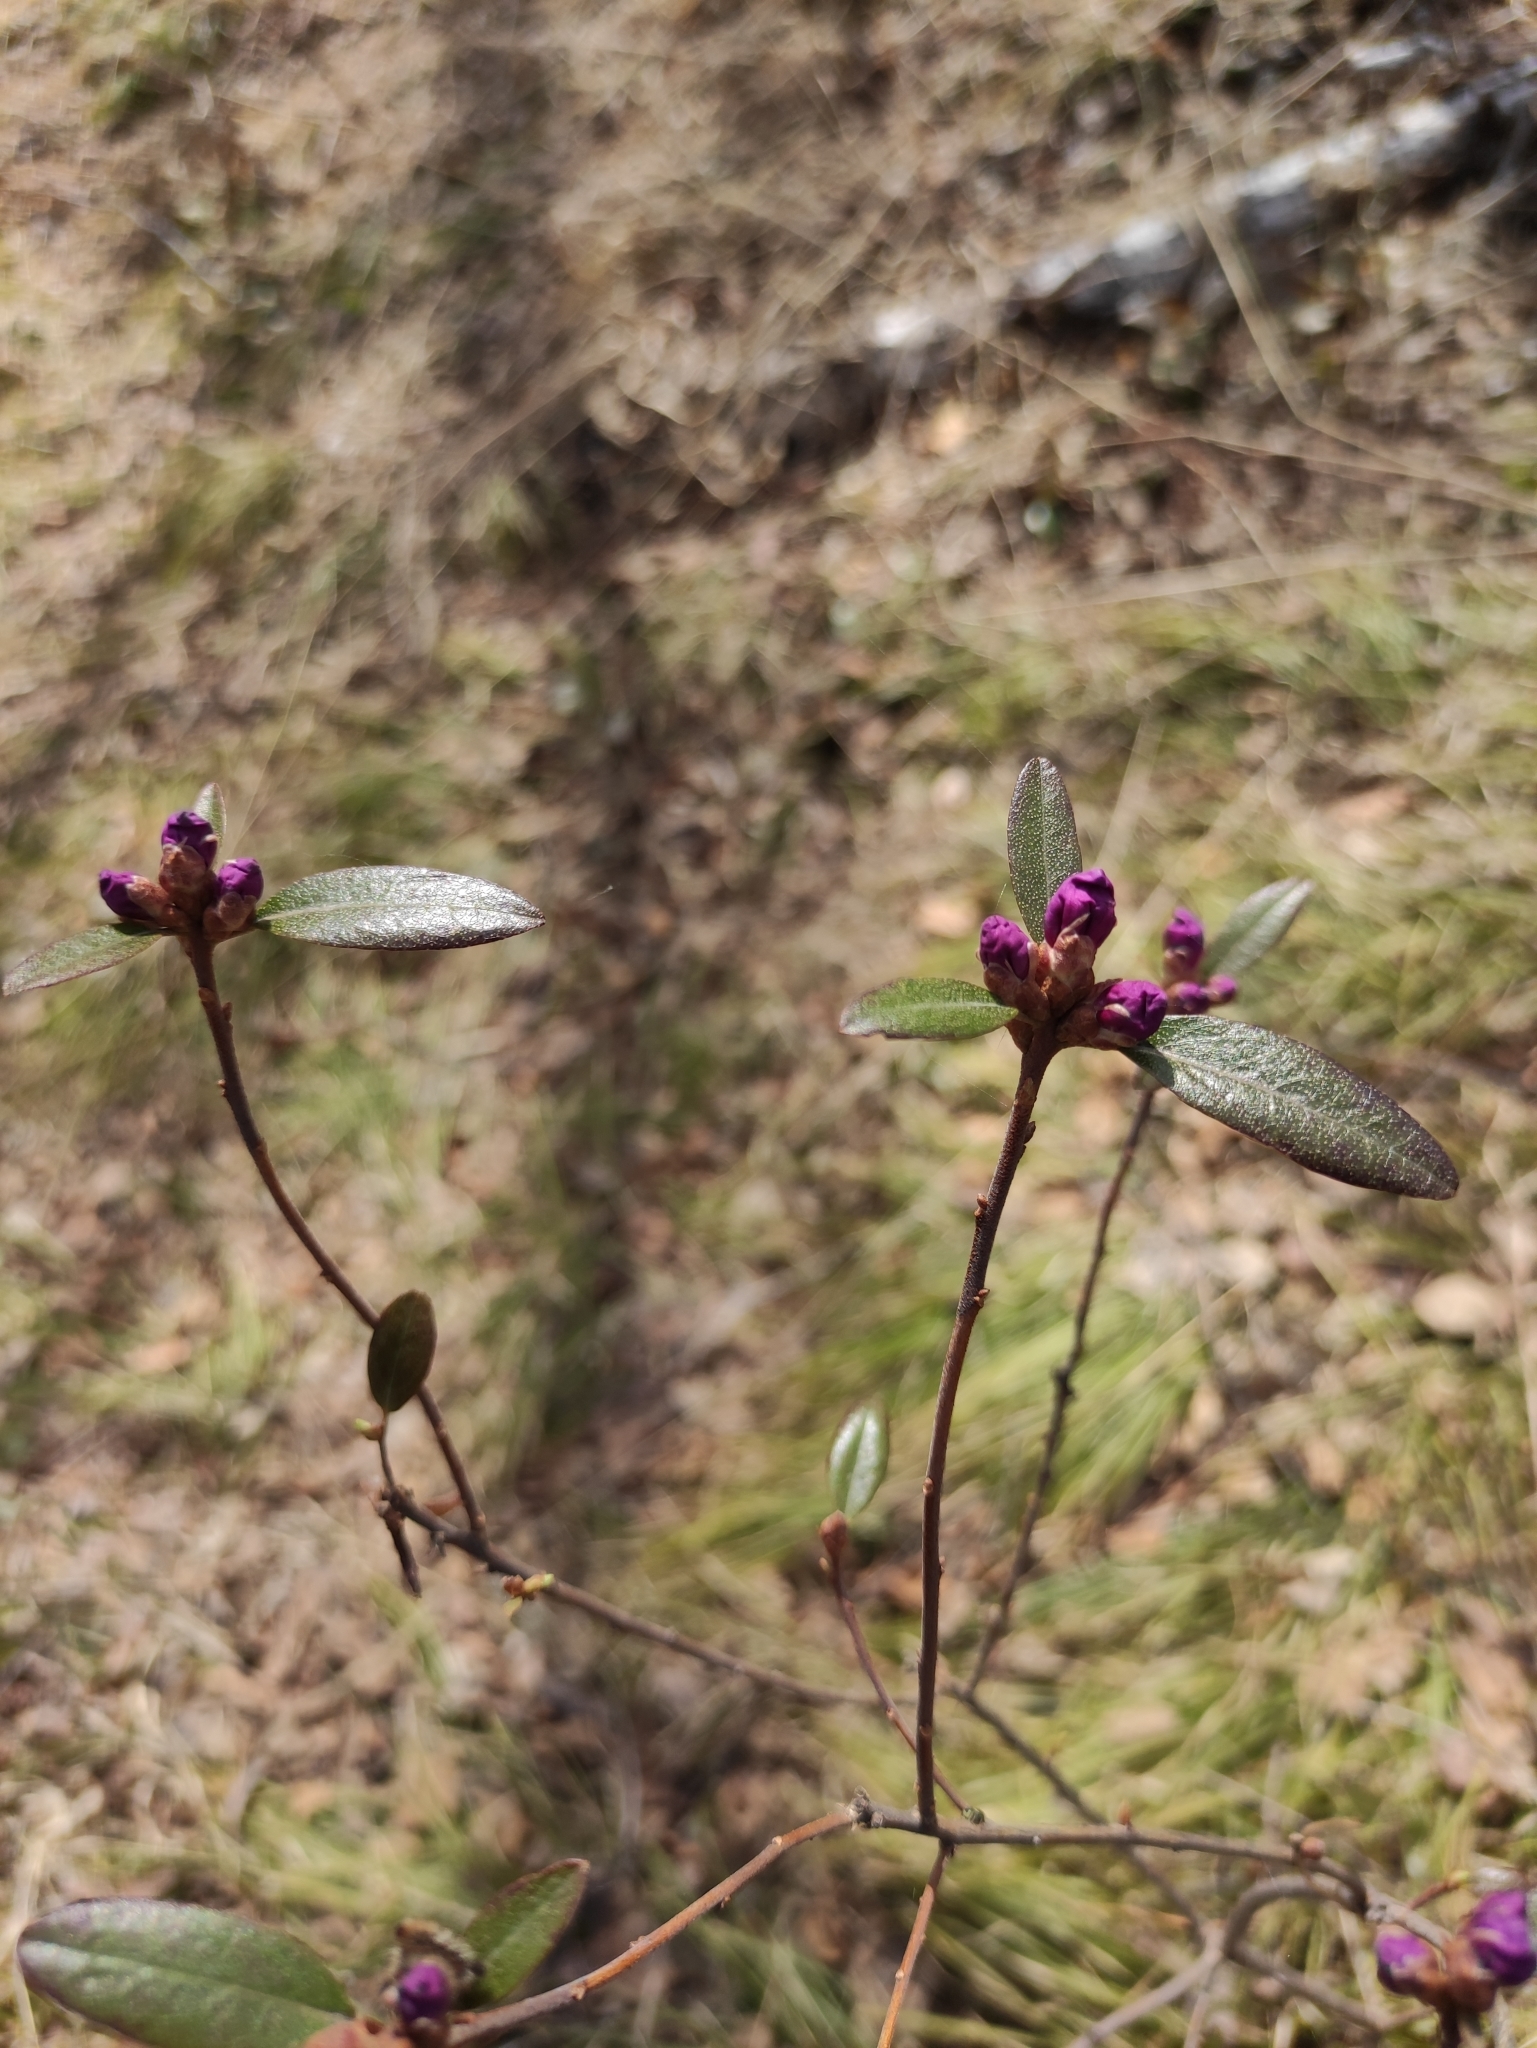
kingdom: Plantae
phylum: Tracheophyta
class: Magnoliopsida
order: Ericales
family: Ericaceae
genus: Rhododendron
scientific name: Rhododendron dauricum
